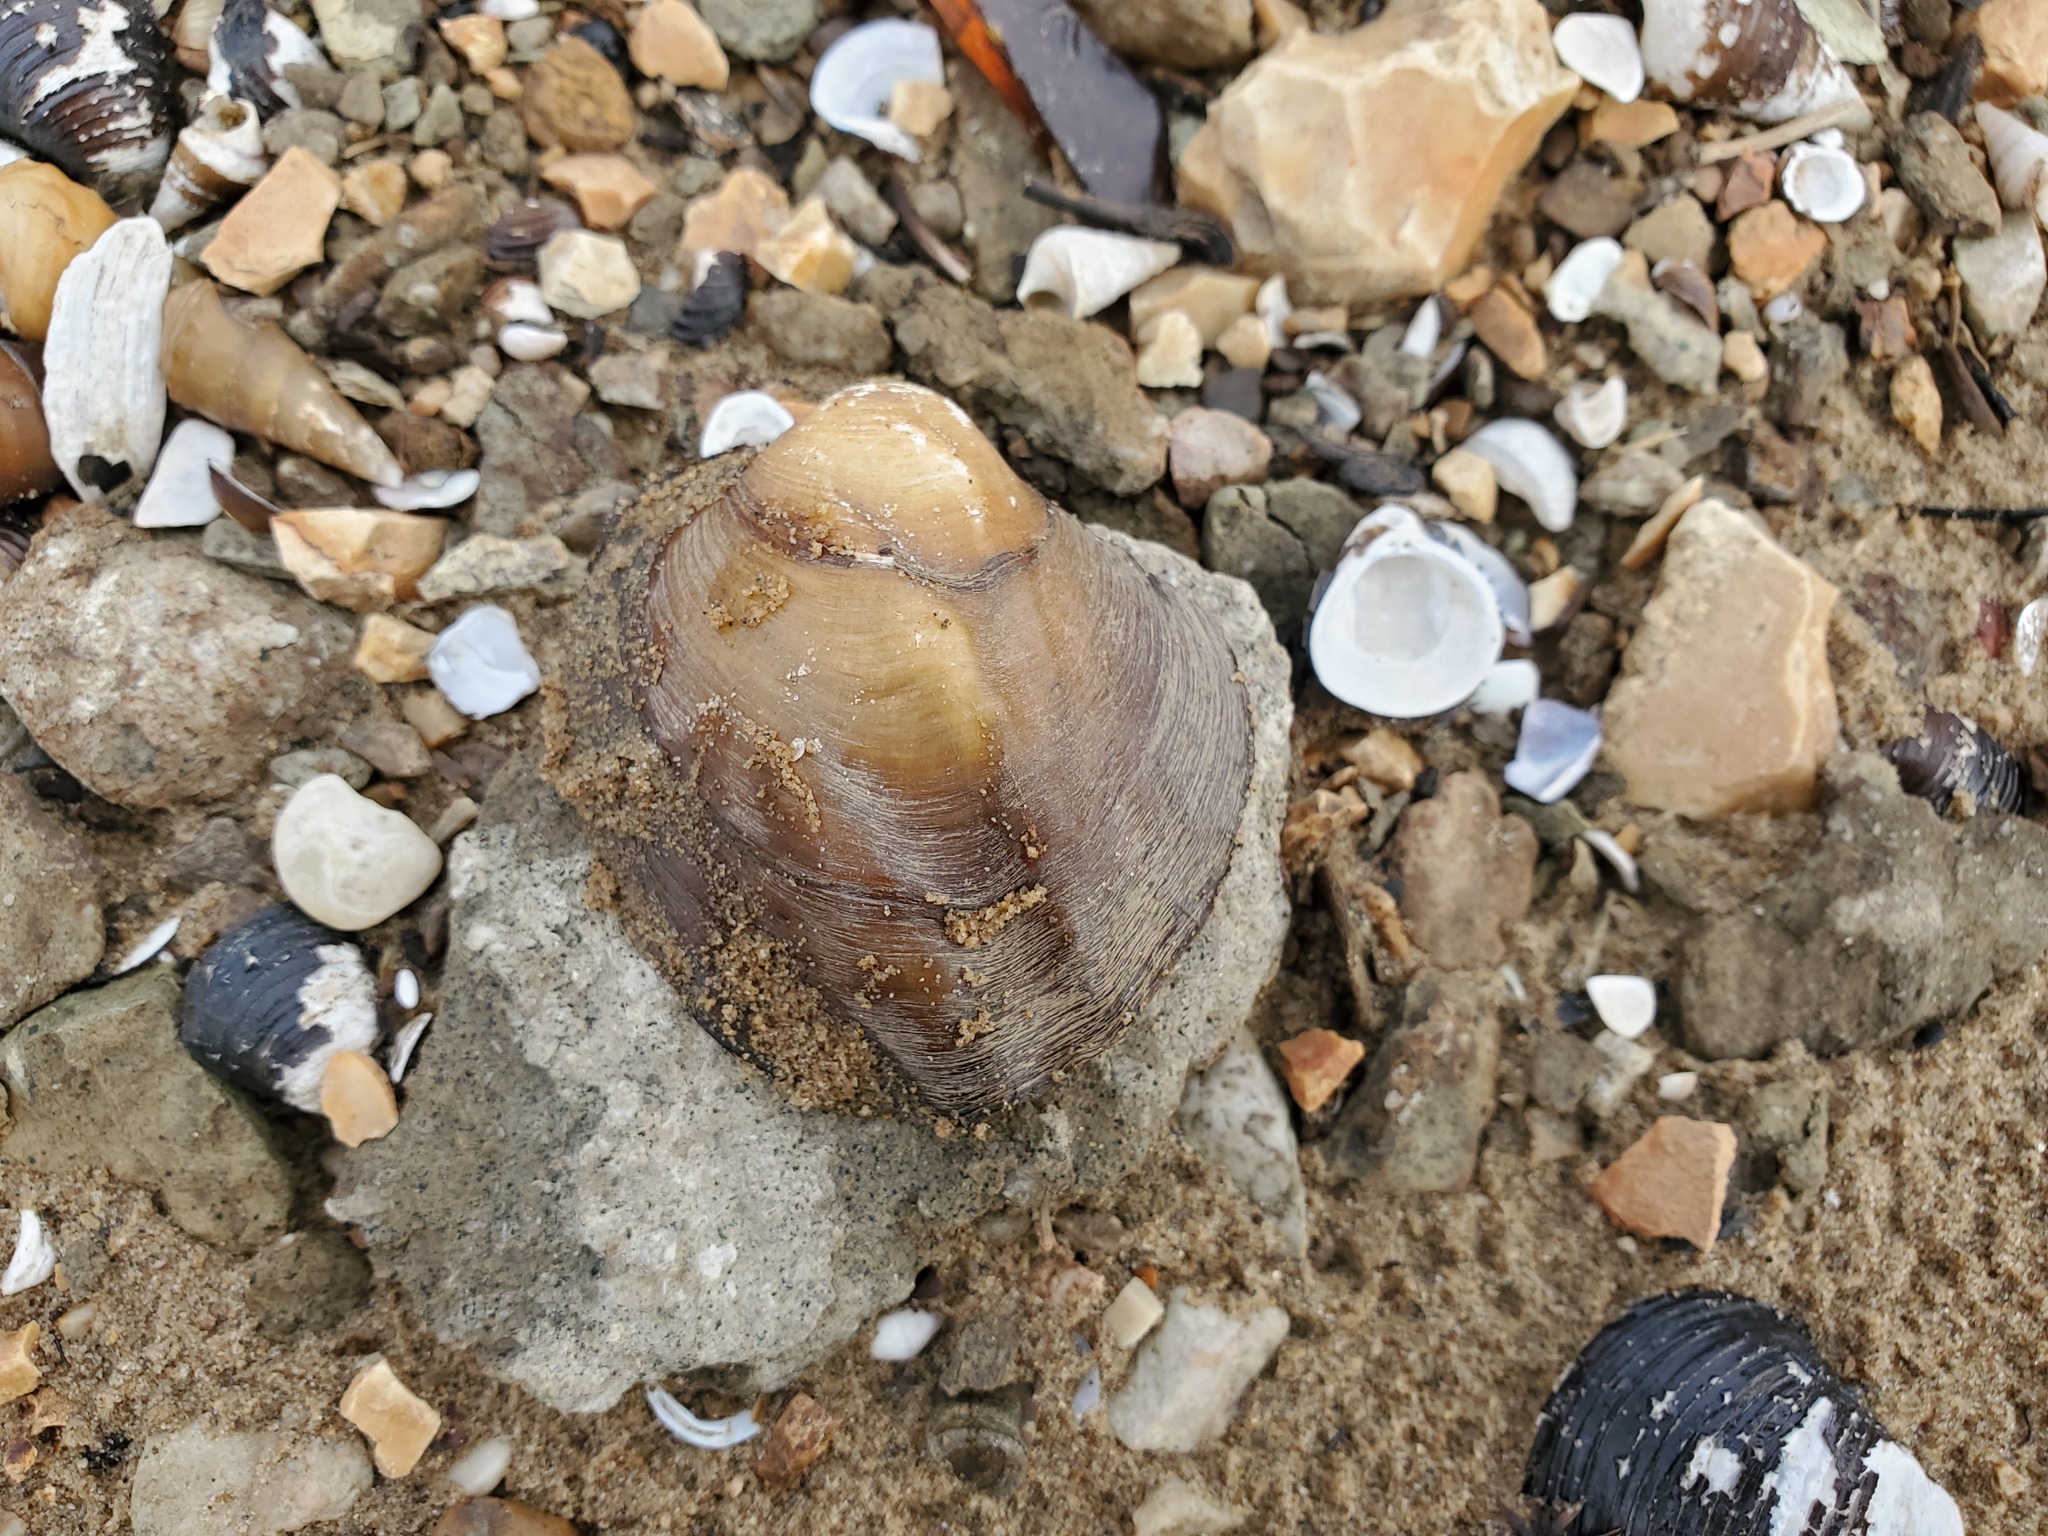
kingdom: Animalia
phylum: Mollusca
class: Bivalvia
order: Unionida
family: Unionidae
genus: Amblema
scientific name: Amblema plicata
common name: Threeridge
